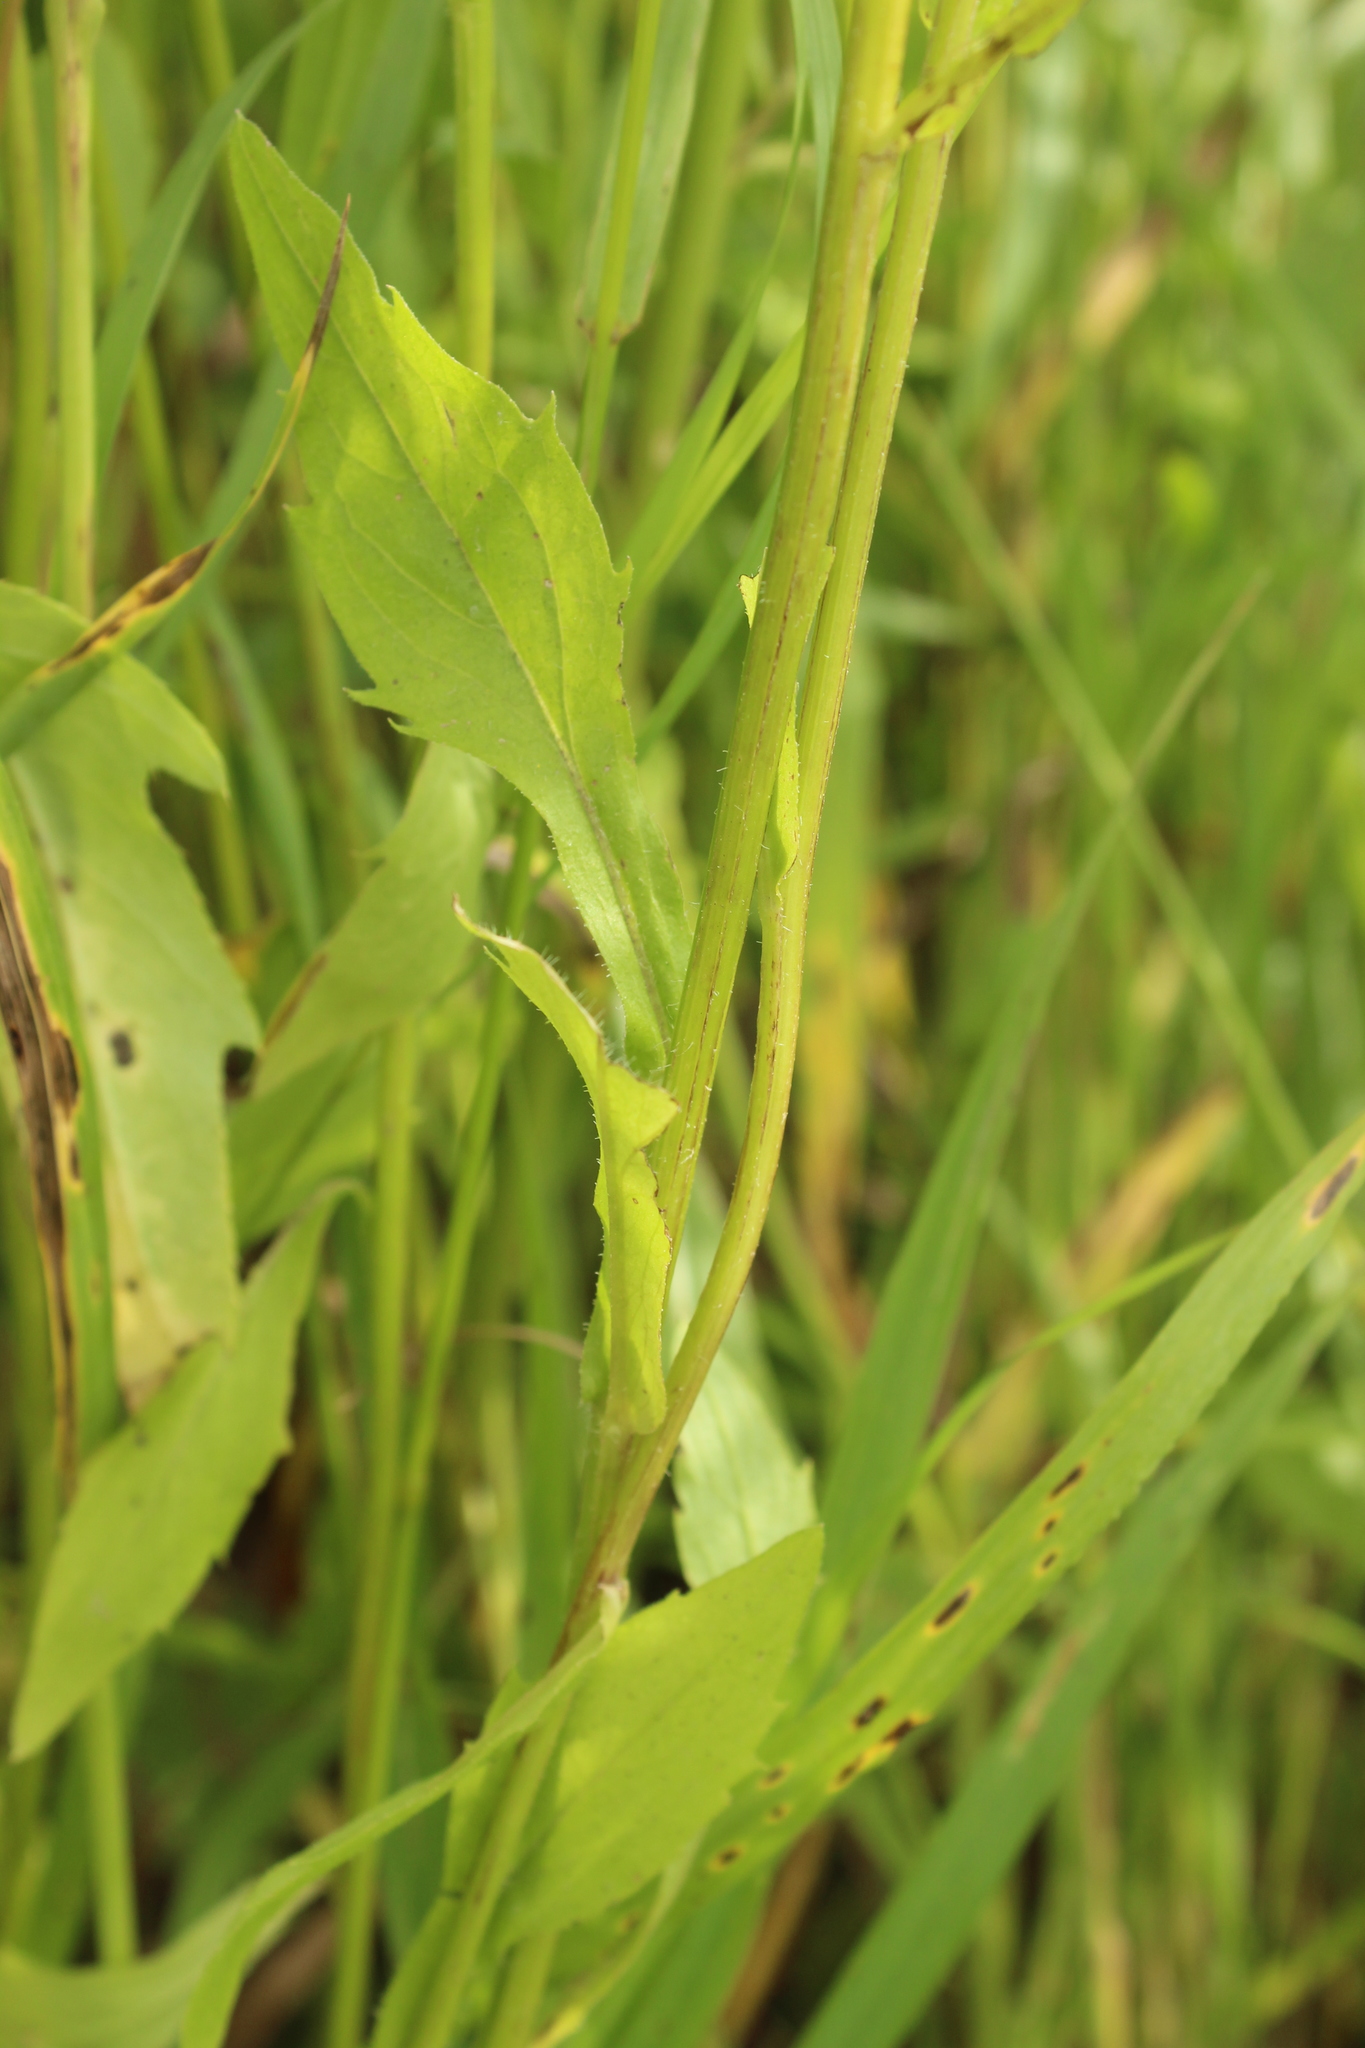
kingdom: Plantae
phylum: Tracheophyta
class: Magnoliopsida
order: Asterales
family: Asteraceae
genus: Erigeron
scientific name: Erigeron annuus
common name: Tall fleabane
